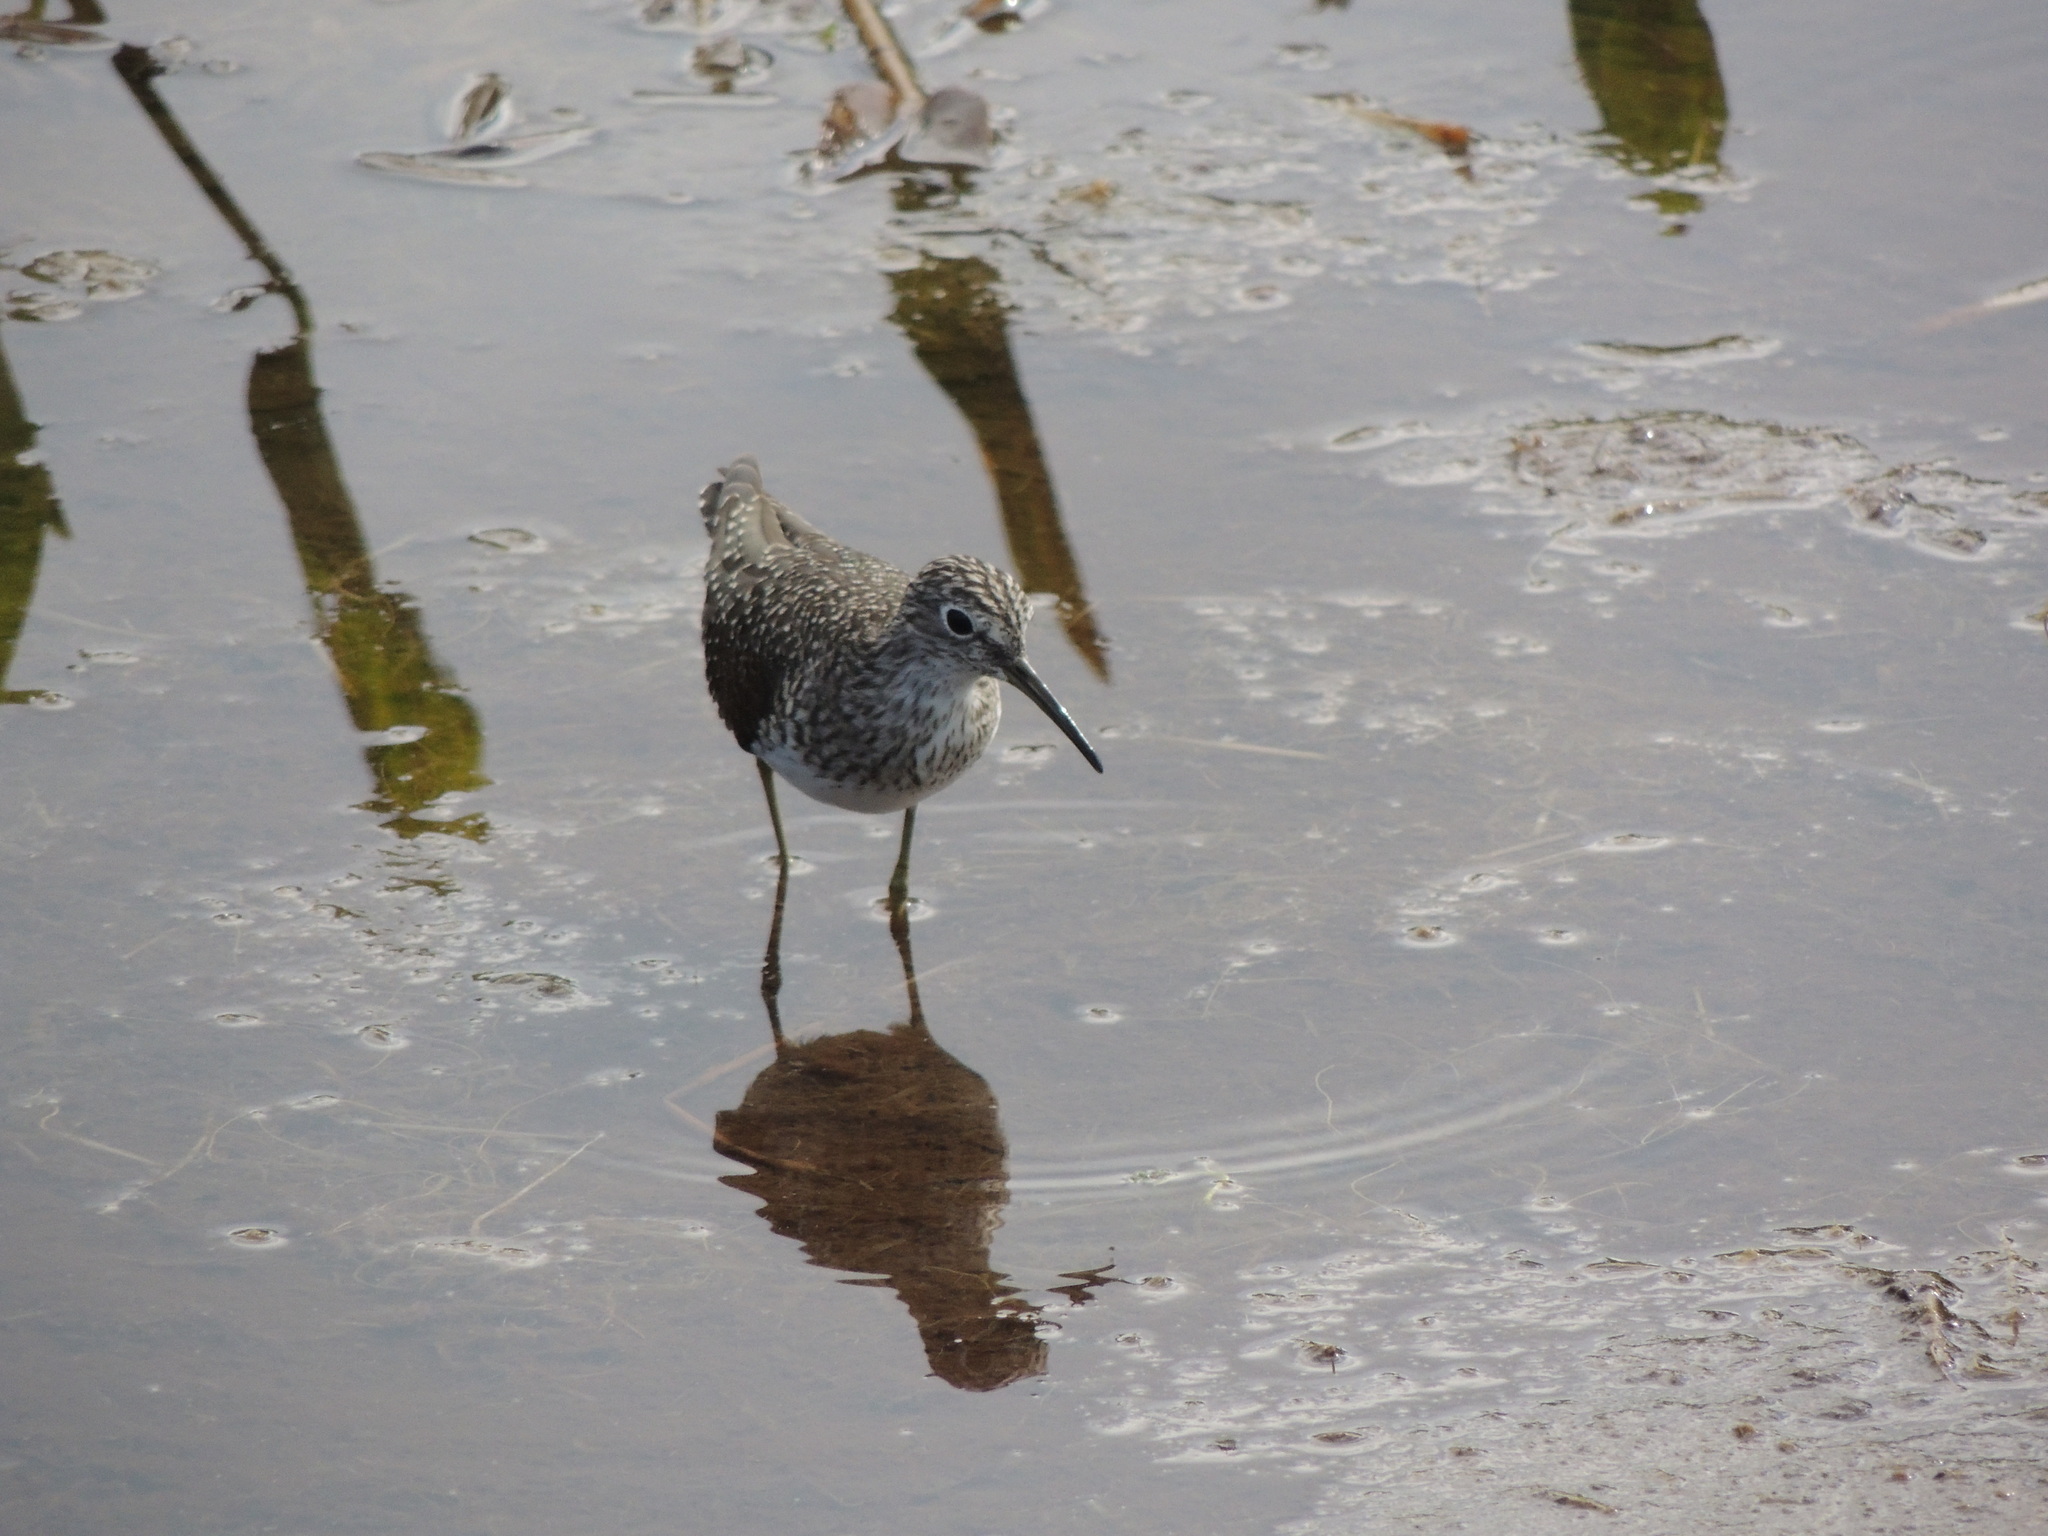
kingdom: Animalia
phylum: Chordata
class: Aves
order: Charadriiformes
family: Scolopacidae
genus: Tringa
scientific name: Tringa solitaria
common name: Solitary sandpiper
